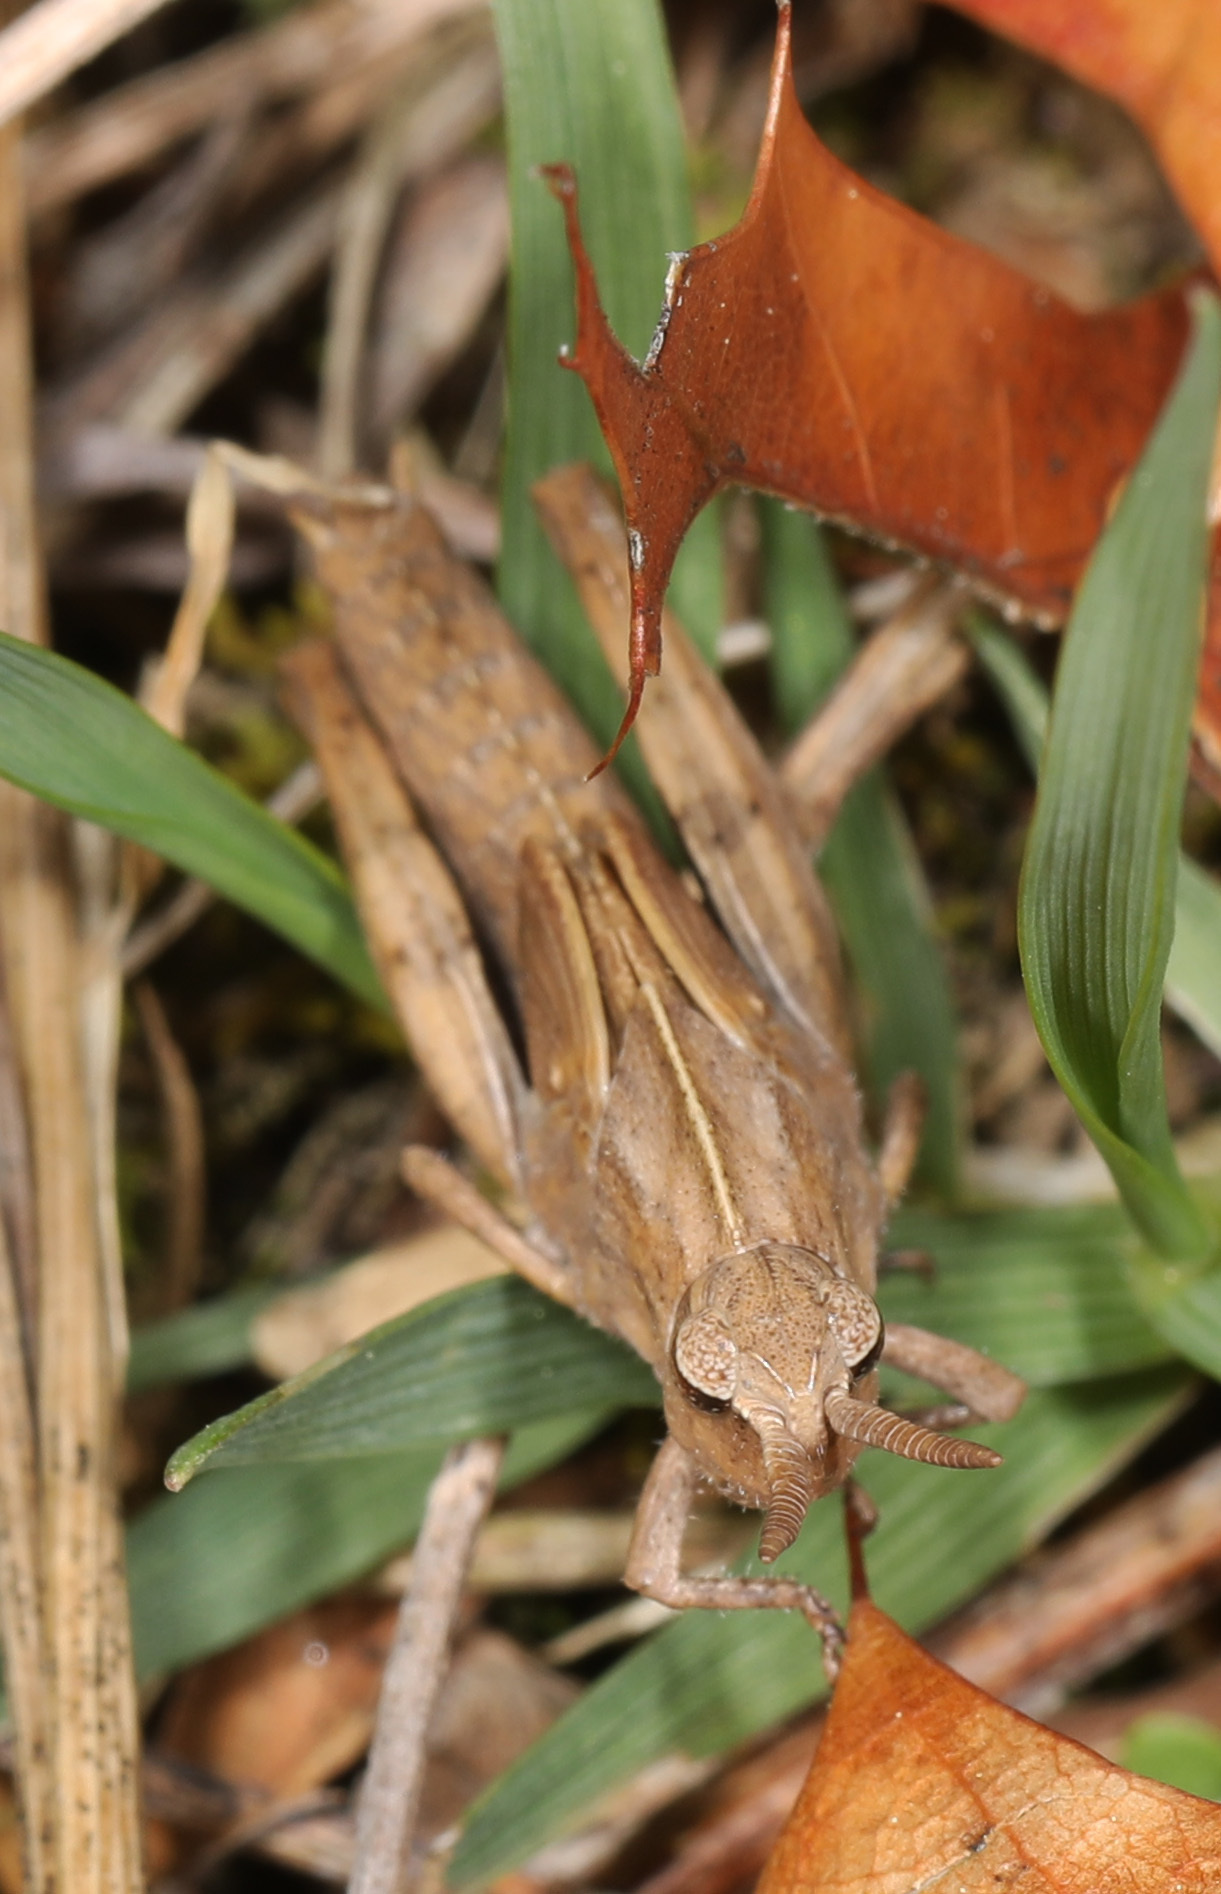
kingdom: Animalia
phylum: Arthropoda
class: Insecta
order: Orthoptera
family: Acrididae
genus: Chortophaga
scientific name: Chortophaga viridifasciata
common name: Green-striped grasshopper
